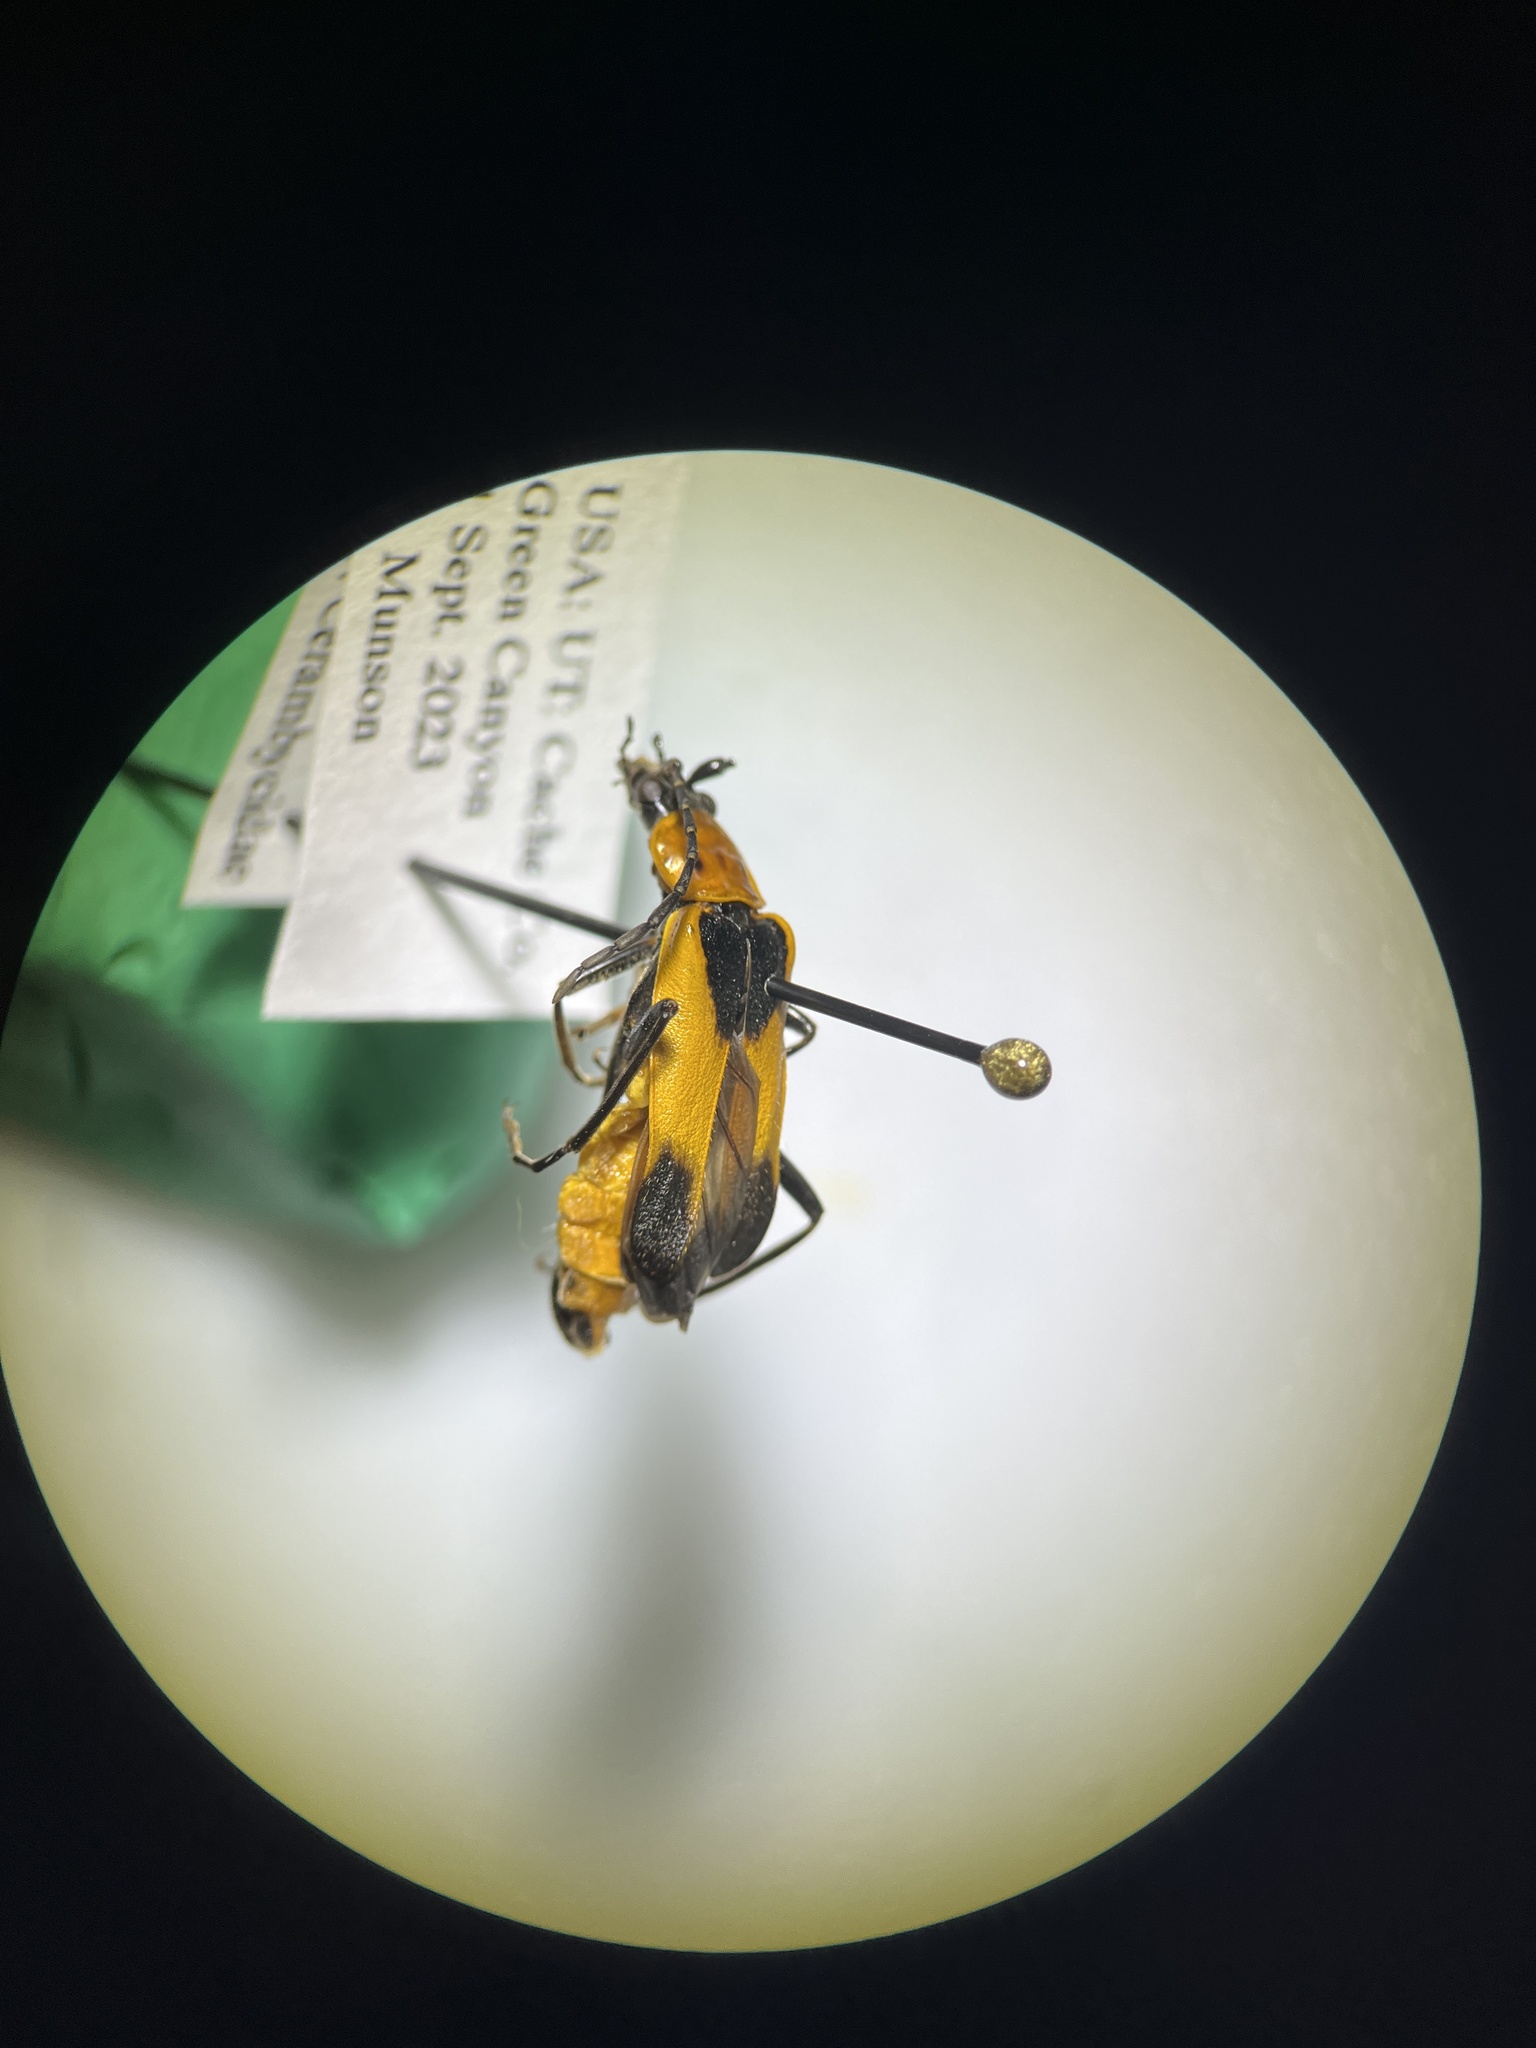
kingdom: Animalia
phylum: Arthropoda
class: Insecta
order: Coleoptera
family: Cantharidae
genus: Chauliognathus
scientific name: Chauliognathus basalis
